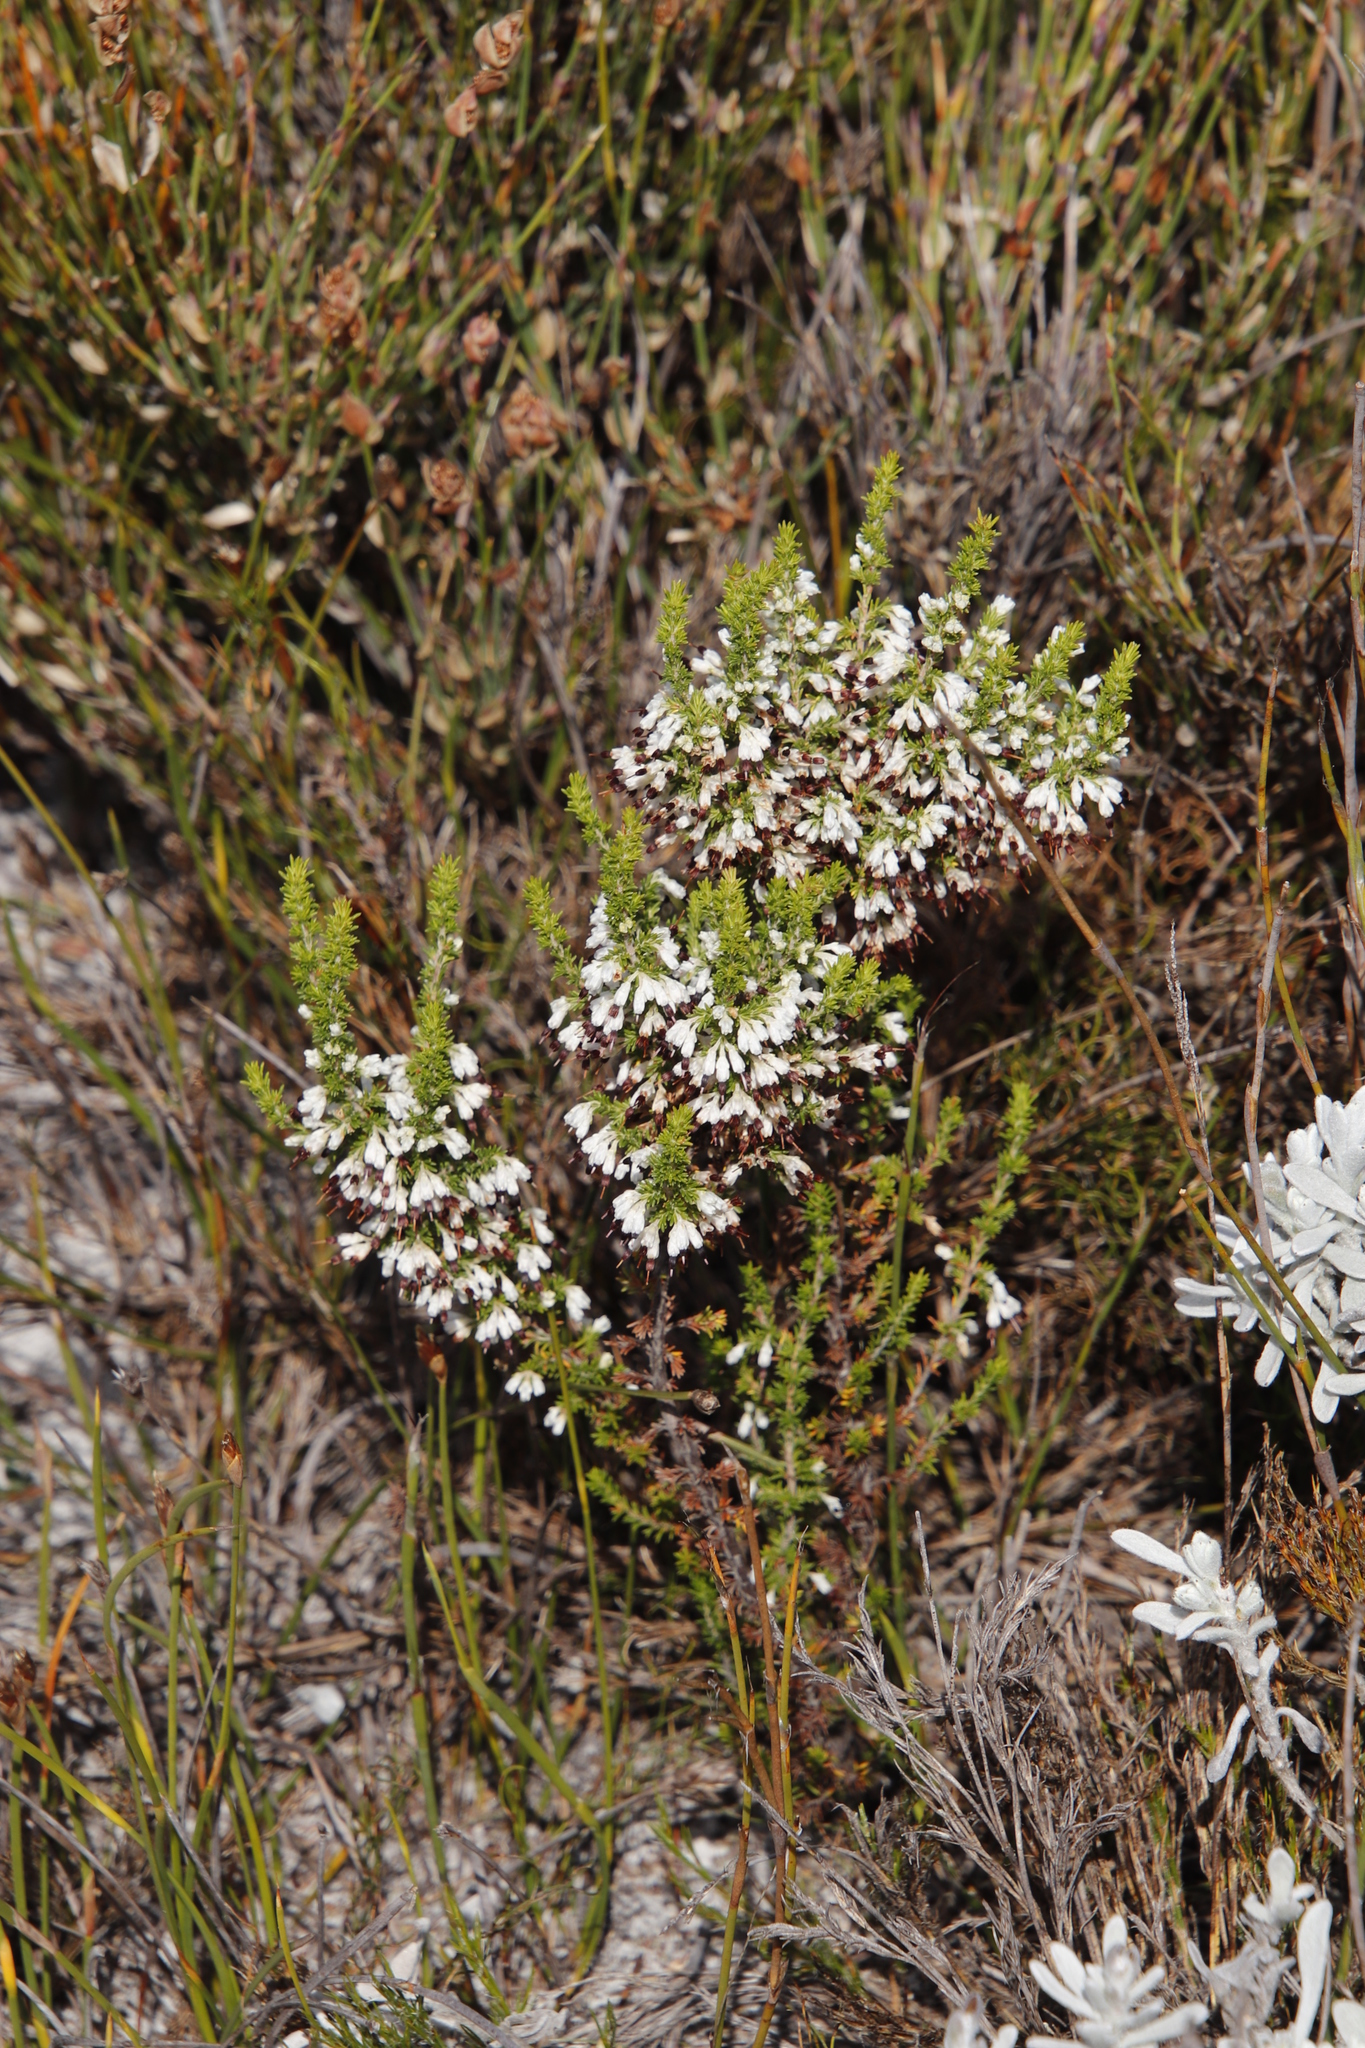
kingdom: Plantae
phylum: Tracheophyta
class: Magnoliopsida
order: Ericales
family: Ericaceae
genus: Erica
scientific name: Erica imbricata
